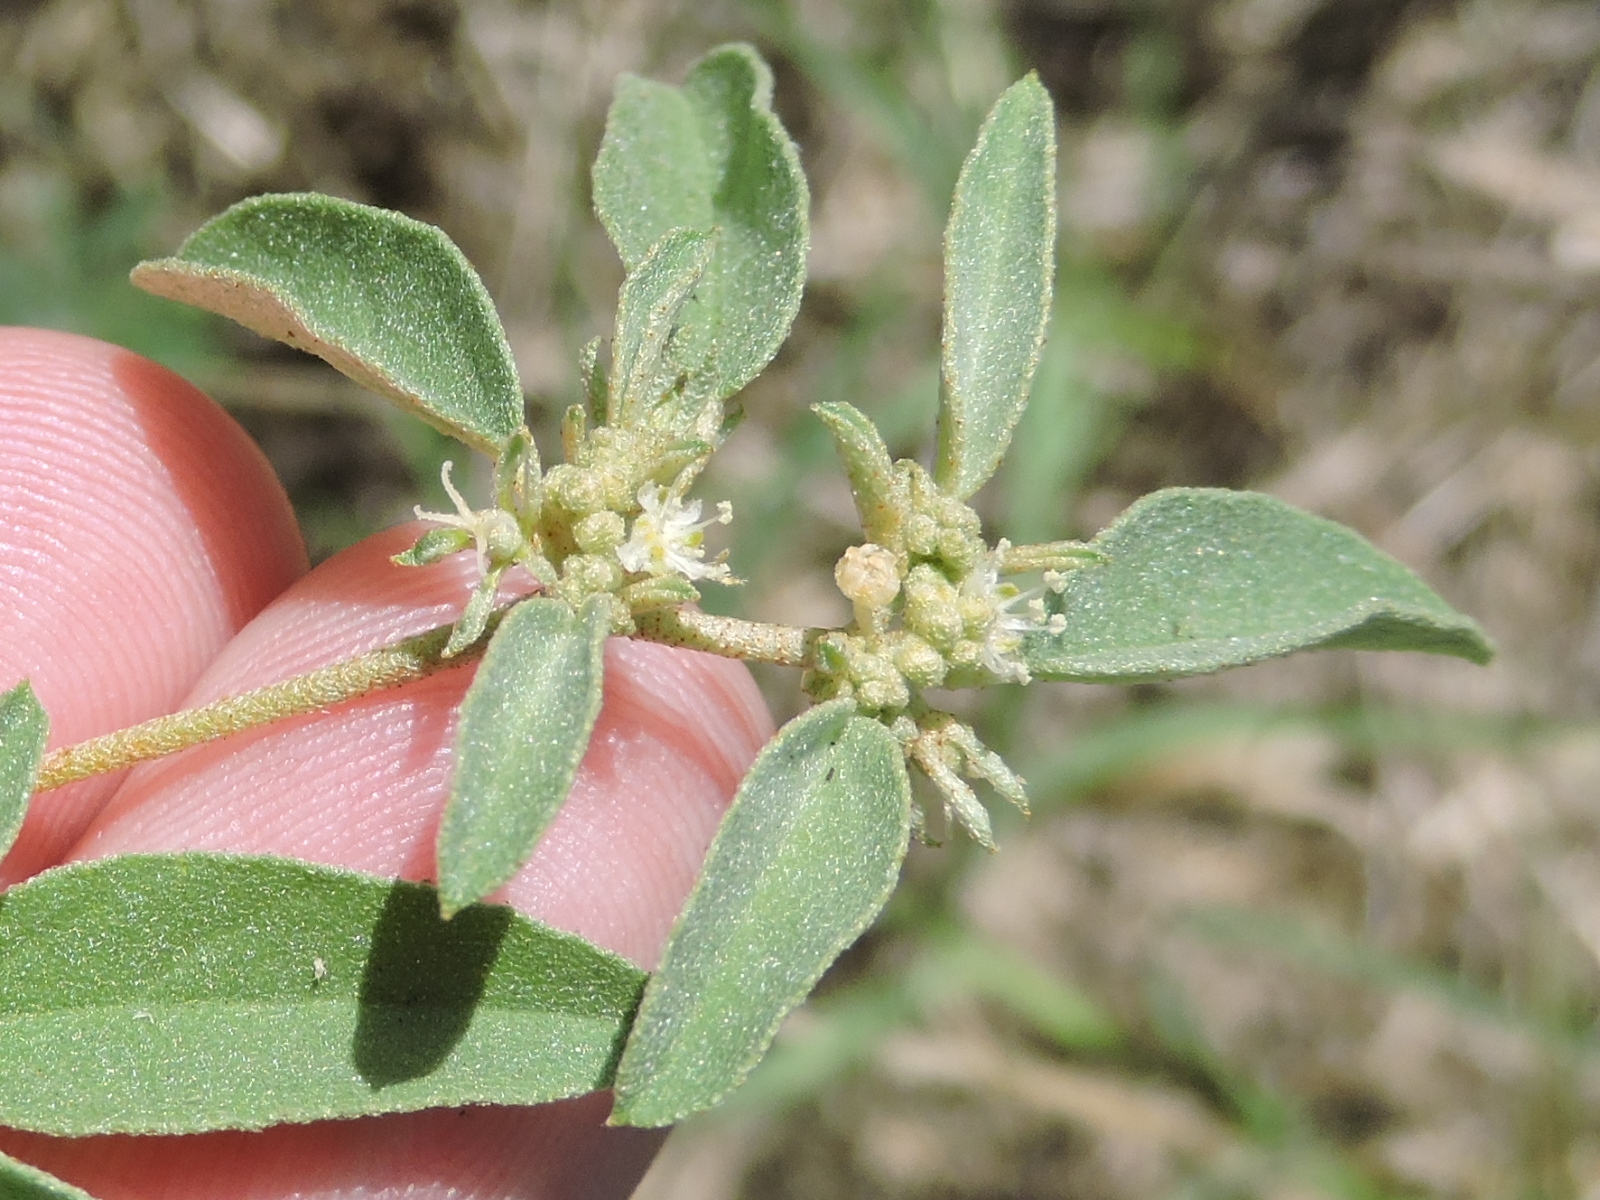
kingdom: Plantae
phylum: Tracheophyta
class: Magnoliopsida
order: Malpighiales
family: Euphorbiaceae
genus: Croton
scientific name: Croton monanthogynus
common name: One-seed croton
